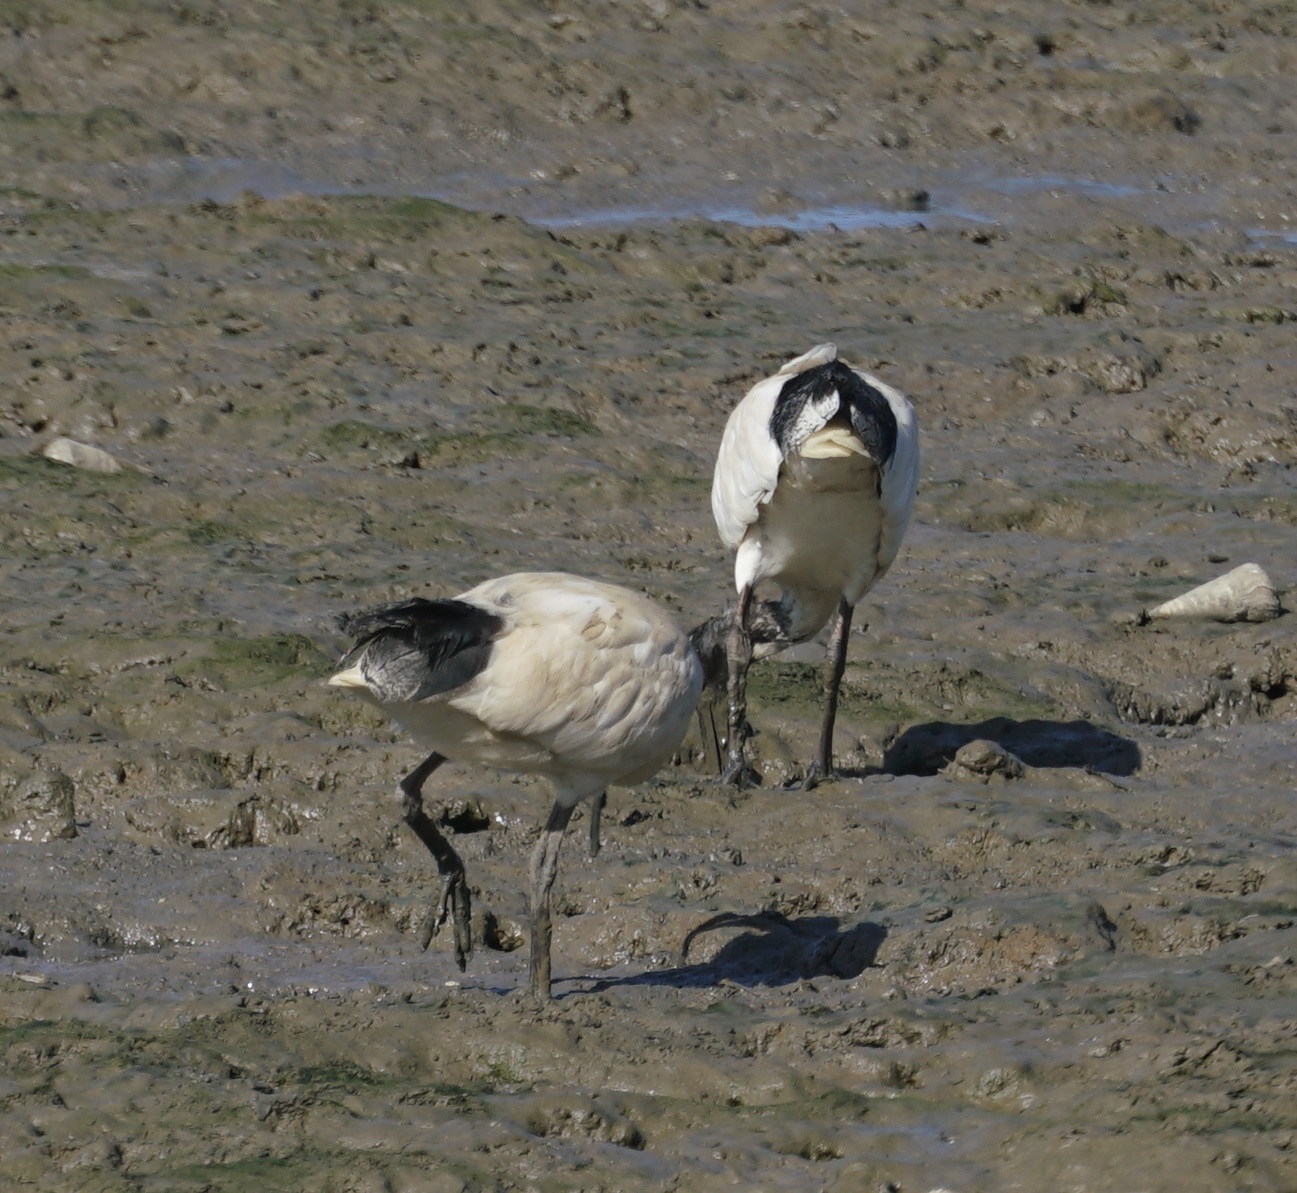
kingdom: Animalia
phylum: Chordata
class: Aves
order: Pelecaniformes
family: Threskiornithidae
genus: Threskiornis
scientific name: Threskiornis molucca
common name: Australian white ibis
